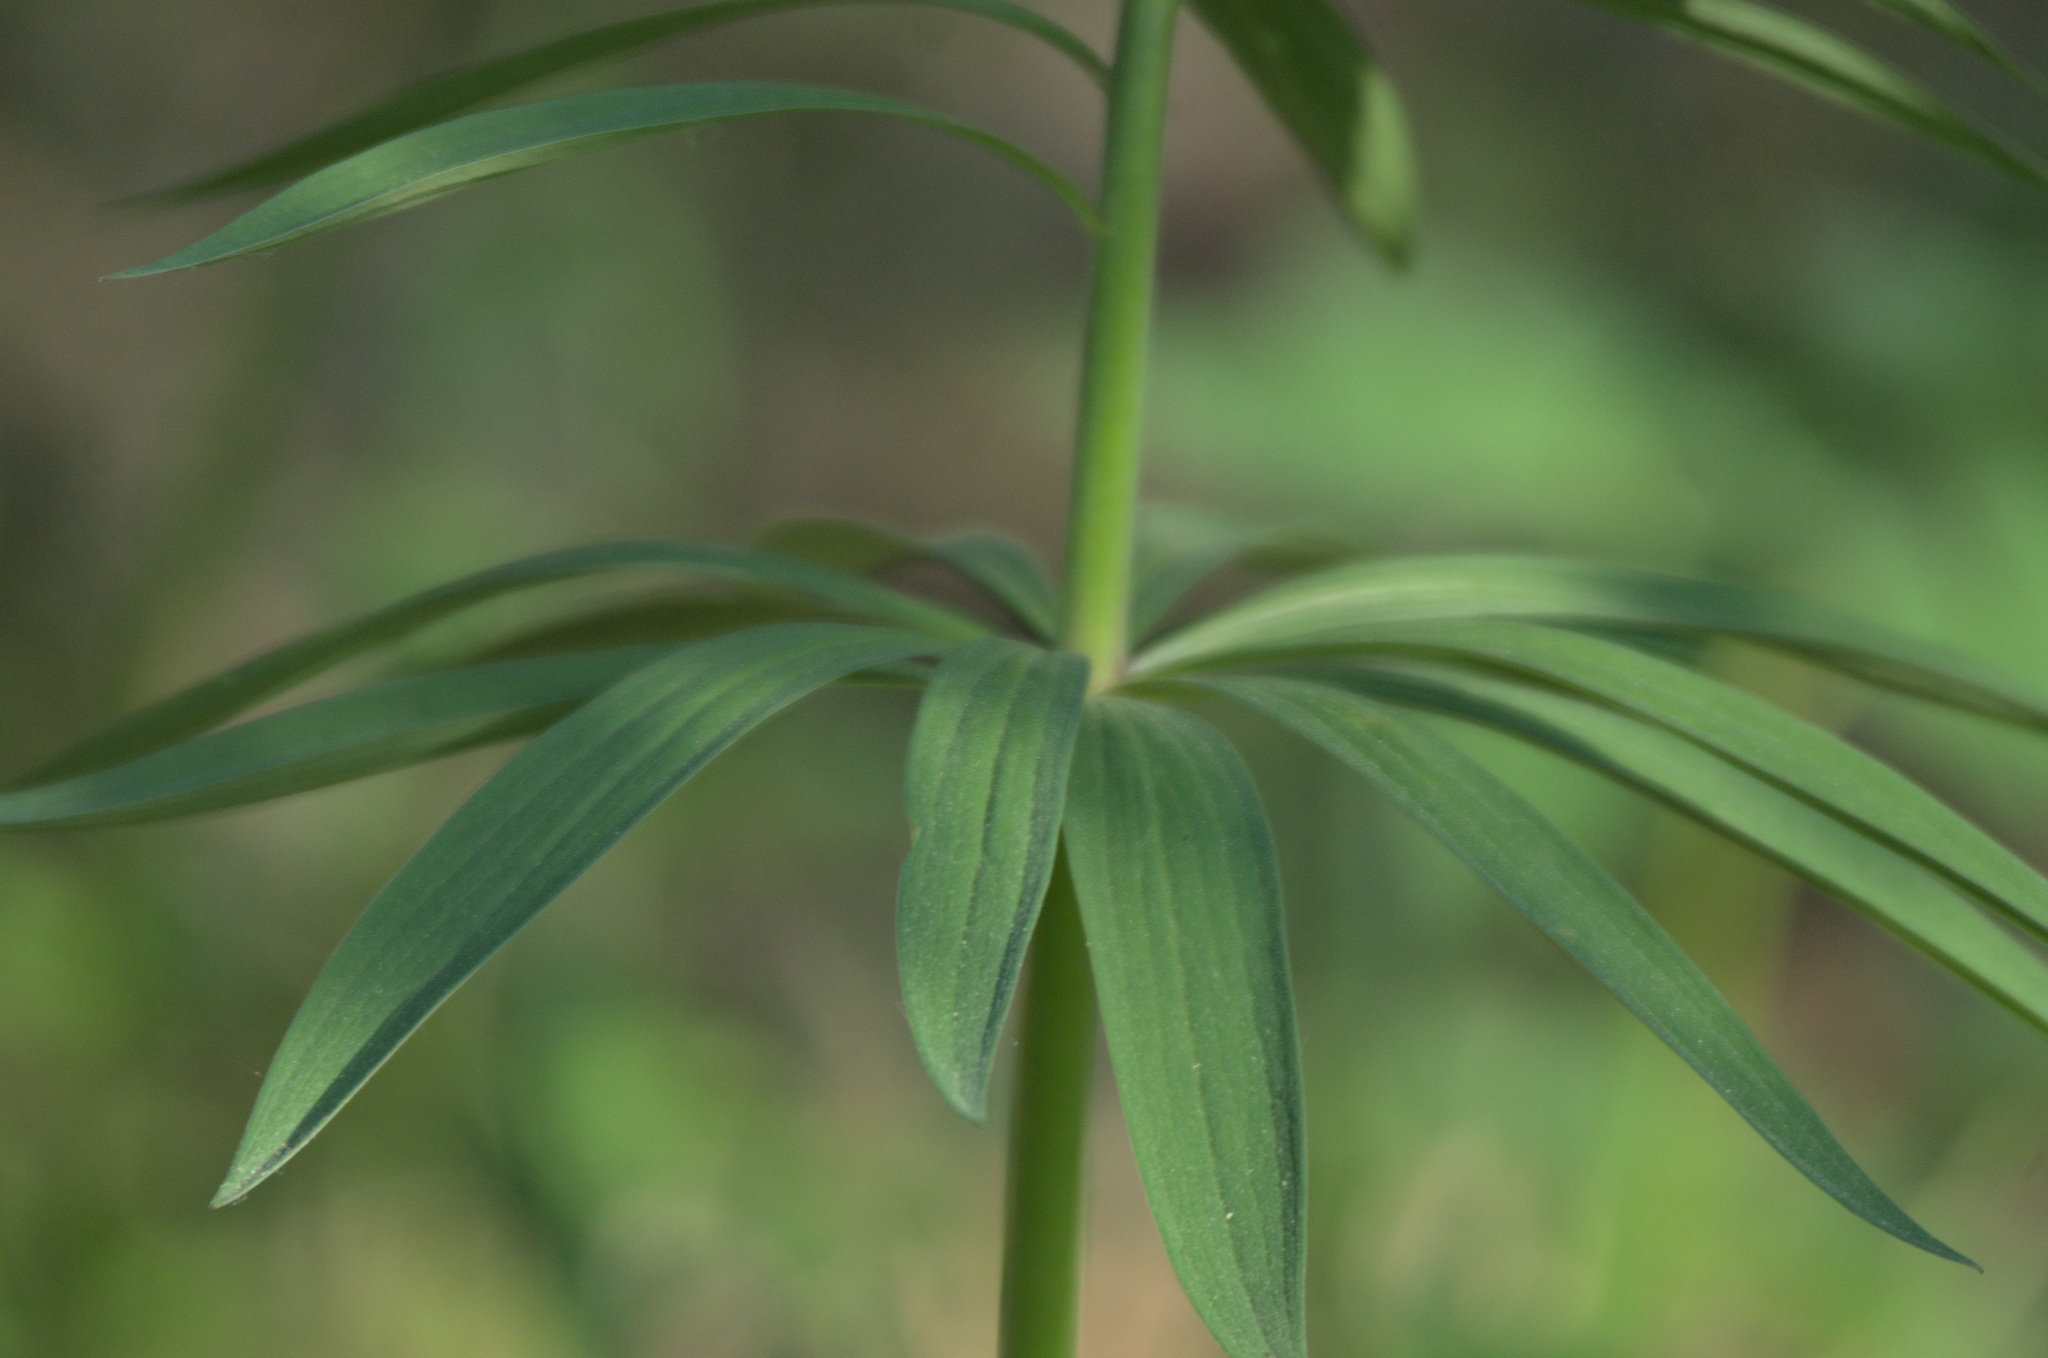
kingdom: Plantae
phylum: Tracheophyta
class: Liliopsida
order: Liliales
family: Liliaceae
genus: Lilium
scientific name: Lilium martagon
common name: Martagon lily
